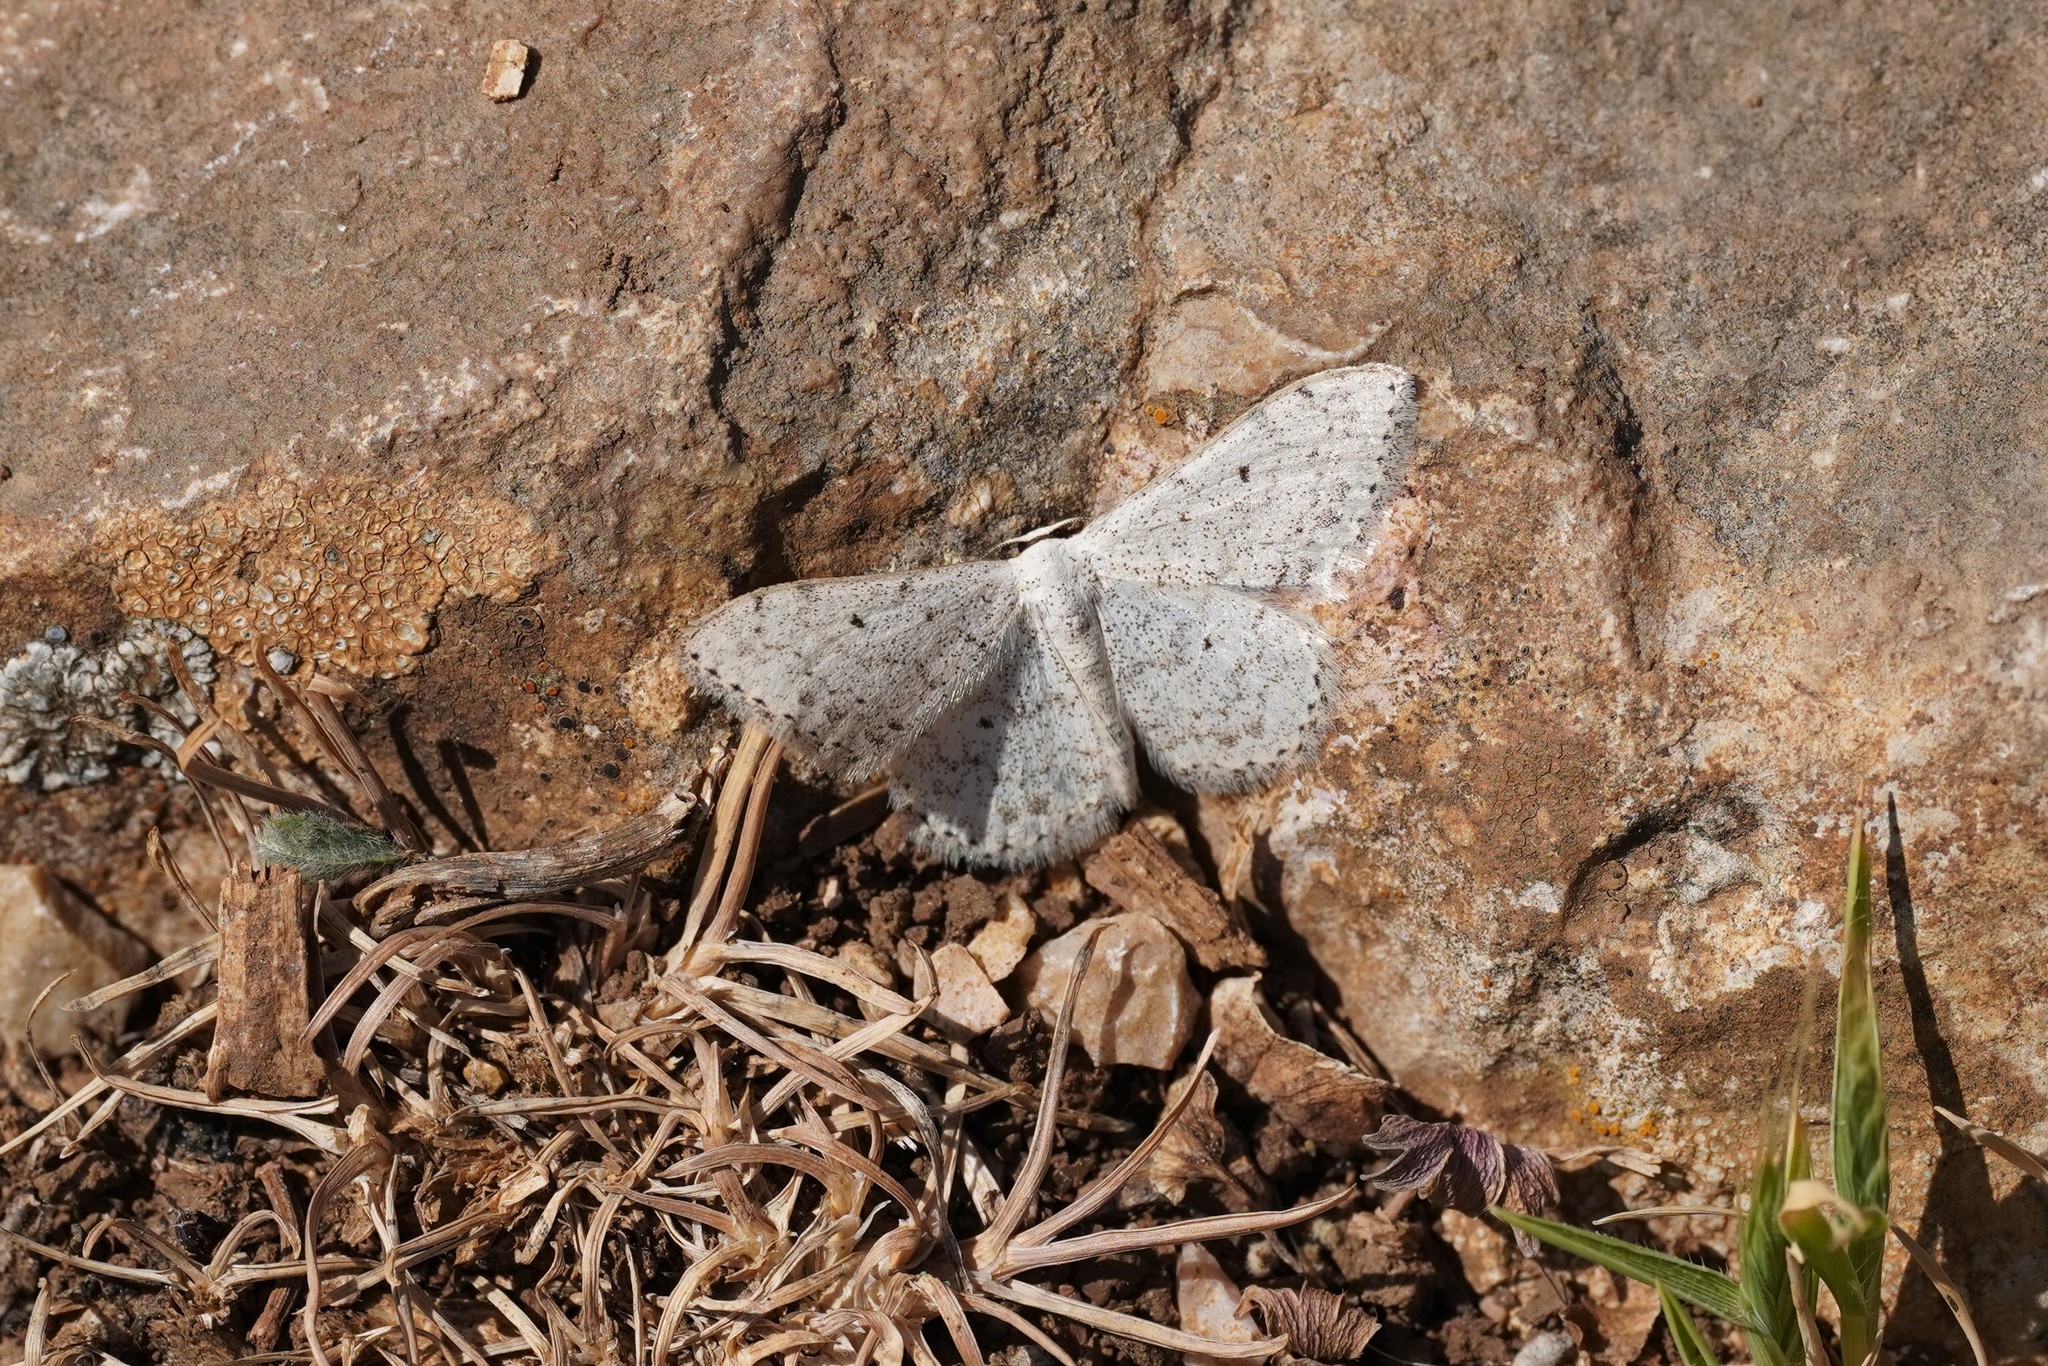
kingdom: Animalia
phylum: Arthropoda
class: Insecta
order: Lepidoptera
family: Geometridae
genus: Scopula
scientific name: Scopula marginepunctata
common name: Mullein wave
